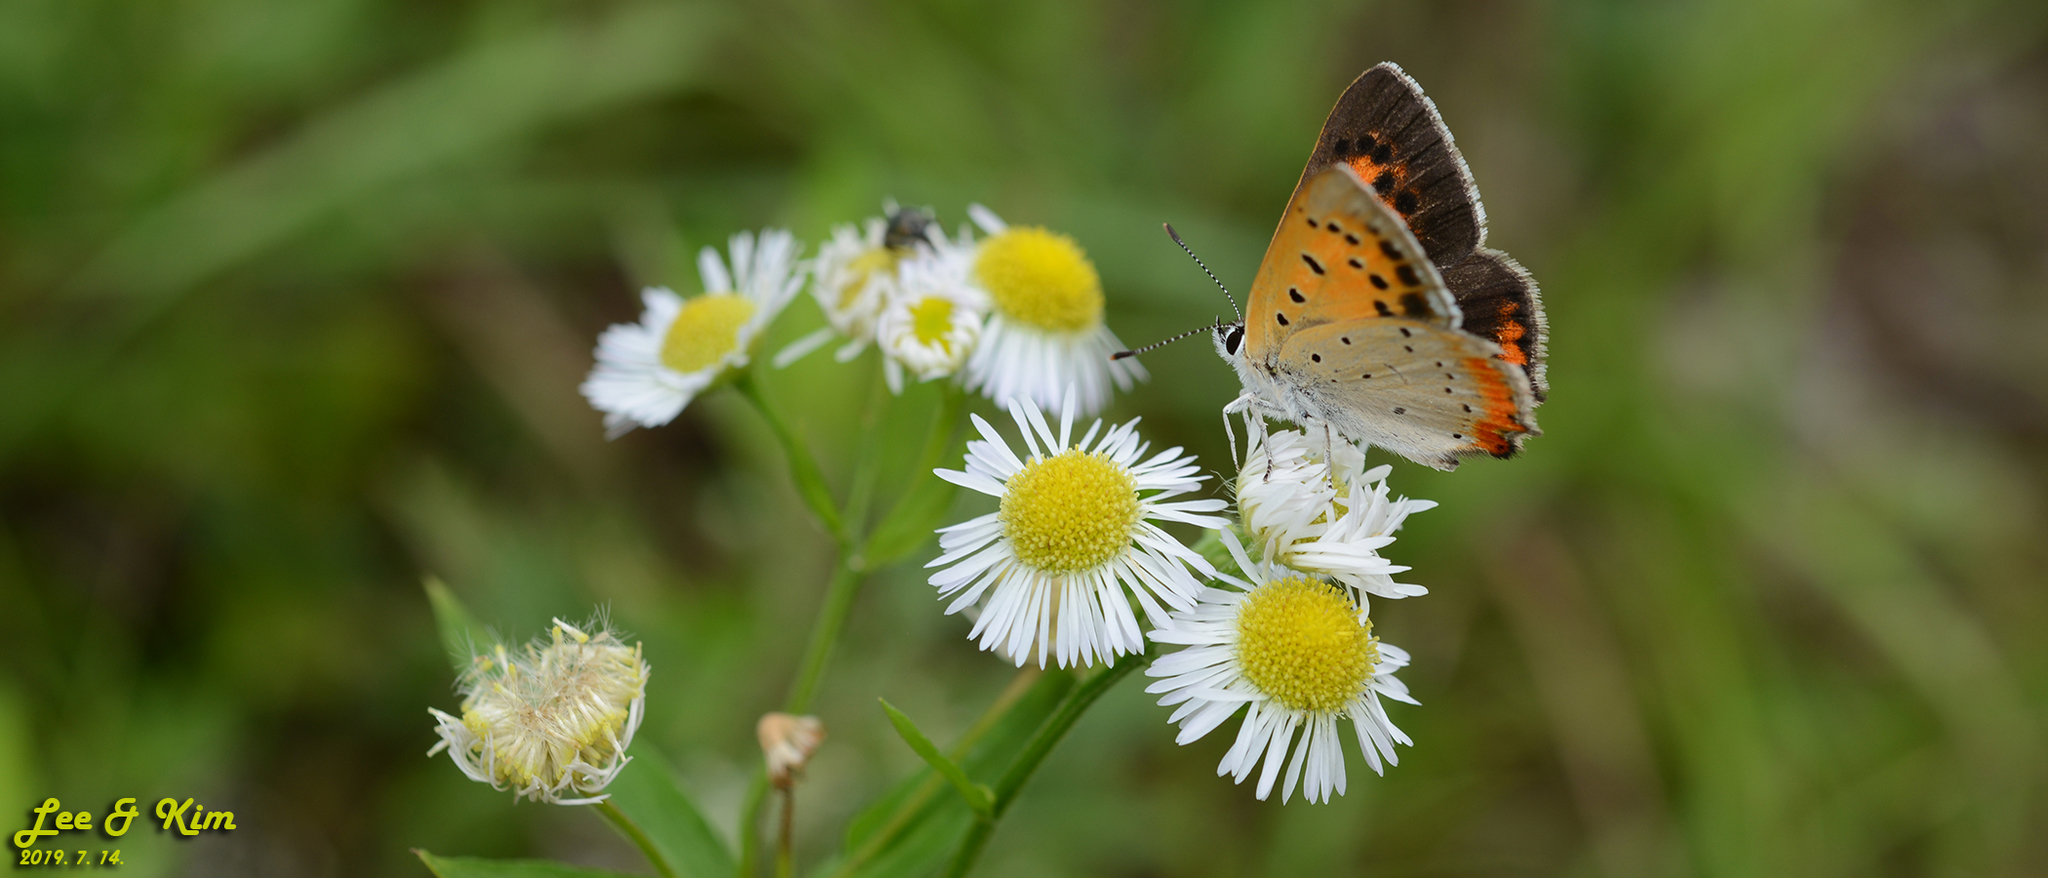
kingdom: Animalia
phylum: Arthropoda
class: Insecta
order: Lepidoptera
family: Lycaenidae
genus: Lycaena
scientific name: Lycaena phlaeas
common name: Small copper
